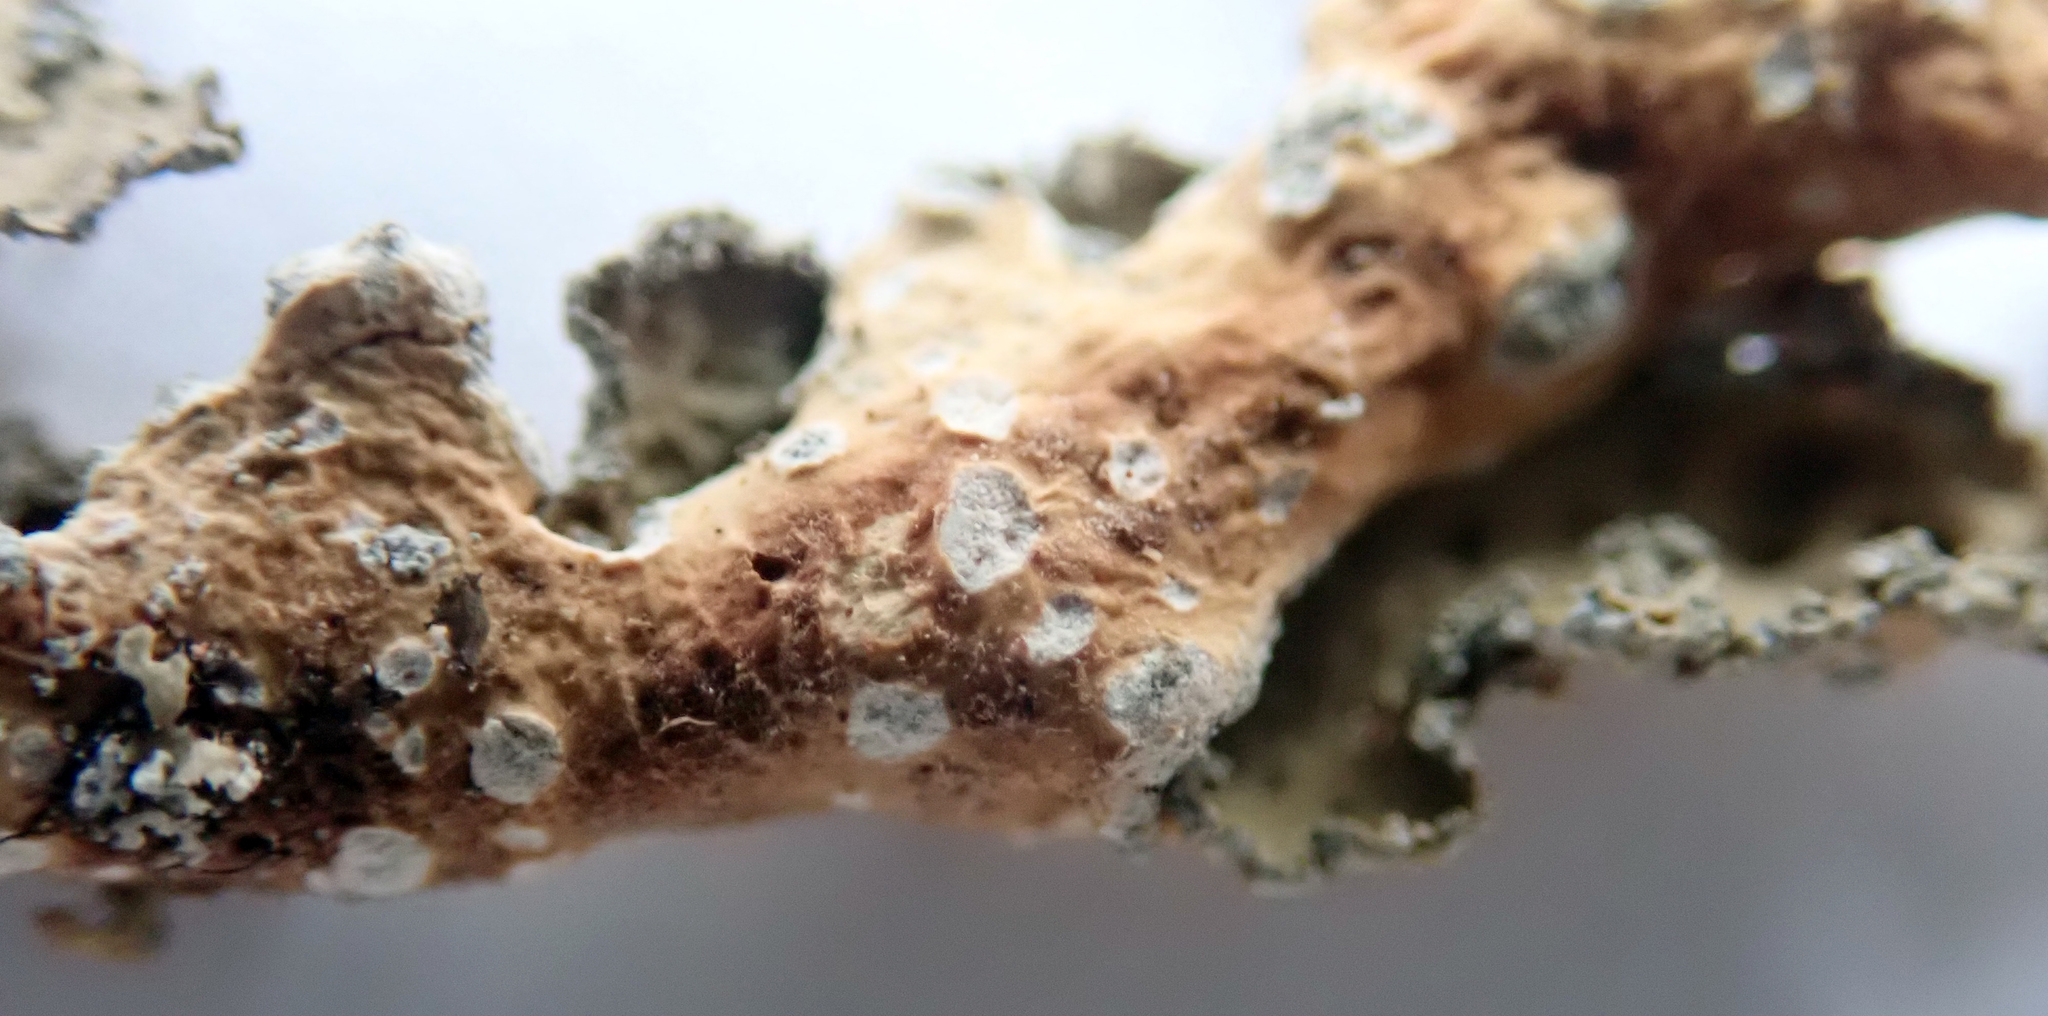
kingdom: Fungi
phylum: Ascomycota
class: Lecanoromycetes
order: Peltigerales
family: Lobariaceae
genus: Pseudocyphellaria
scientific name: Pseudocyphellaria haywardiorum
